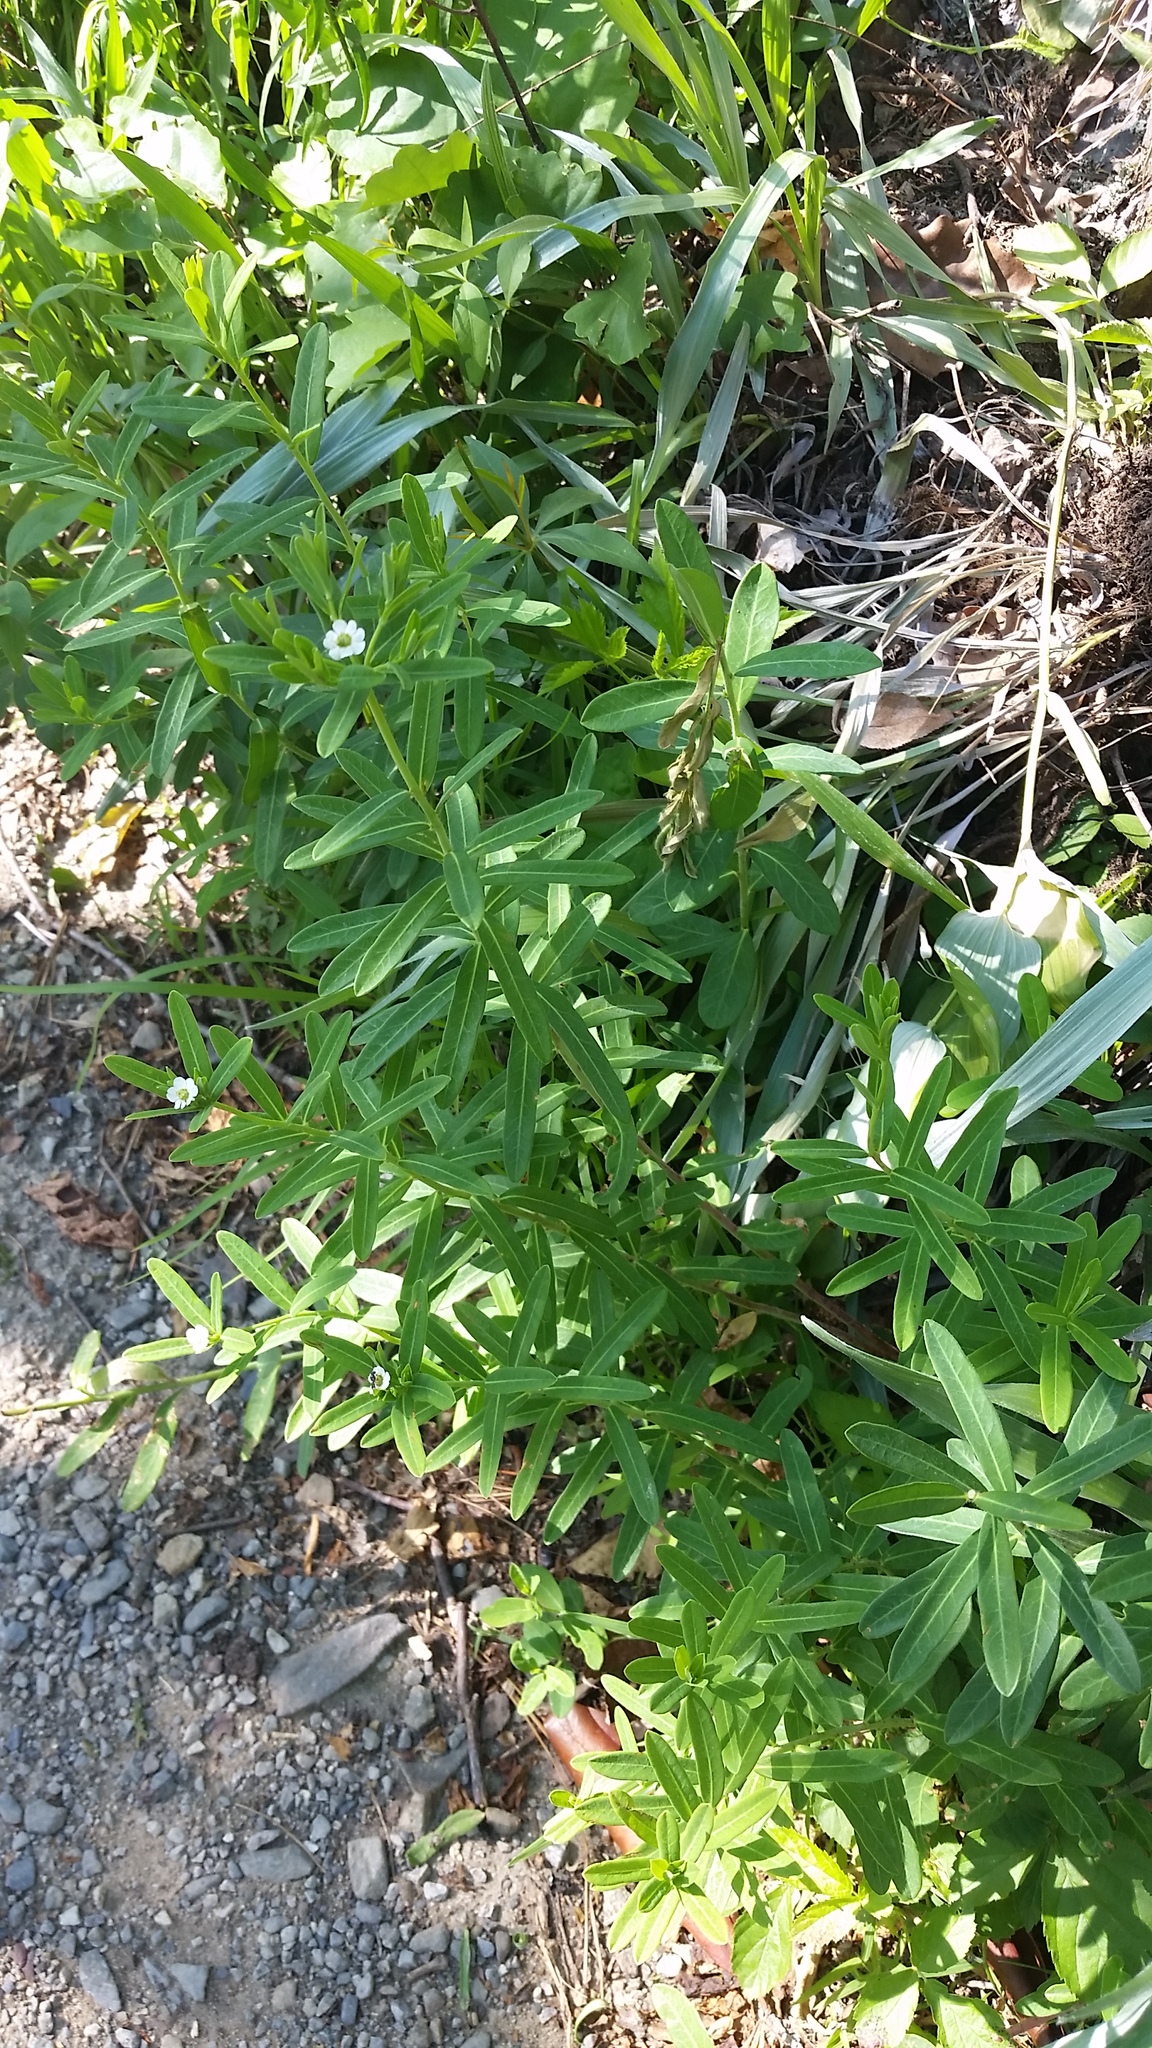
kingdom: Plantae
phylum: Tracheophyta
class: Magnoliopsida
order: Malpighiales
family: Euphorbiaceae
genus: Euphorbia
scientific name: Euphorbia corollata
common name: Flowering spurge
